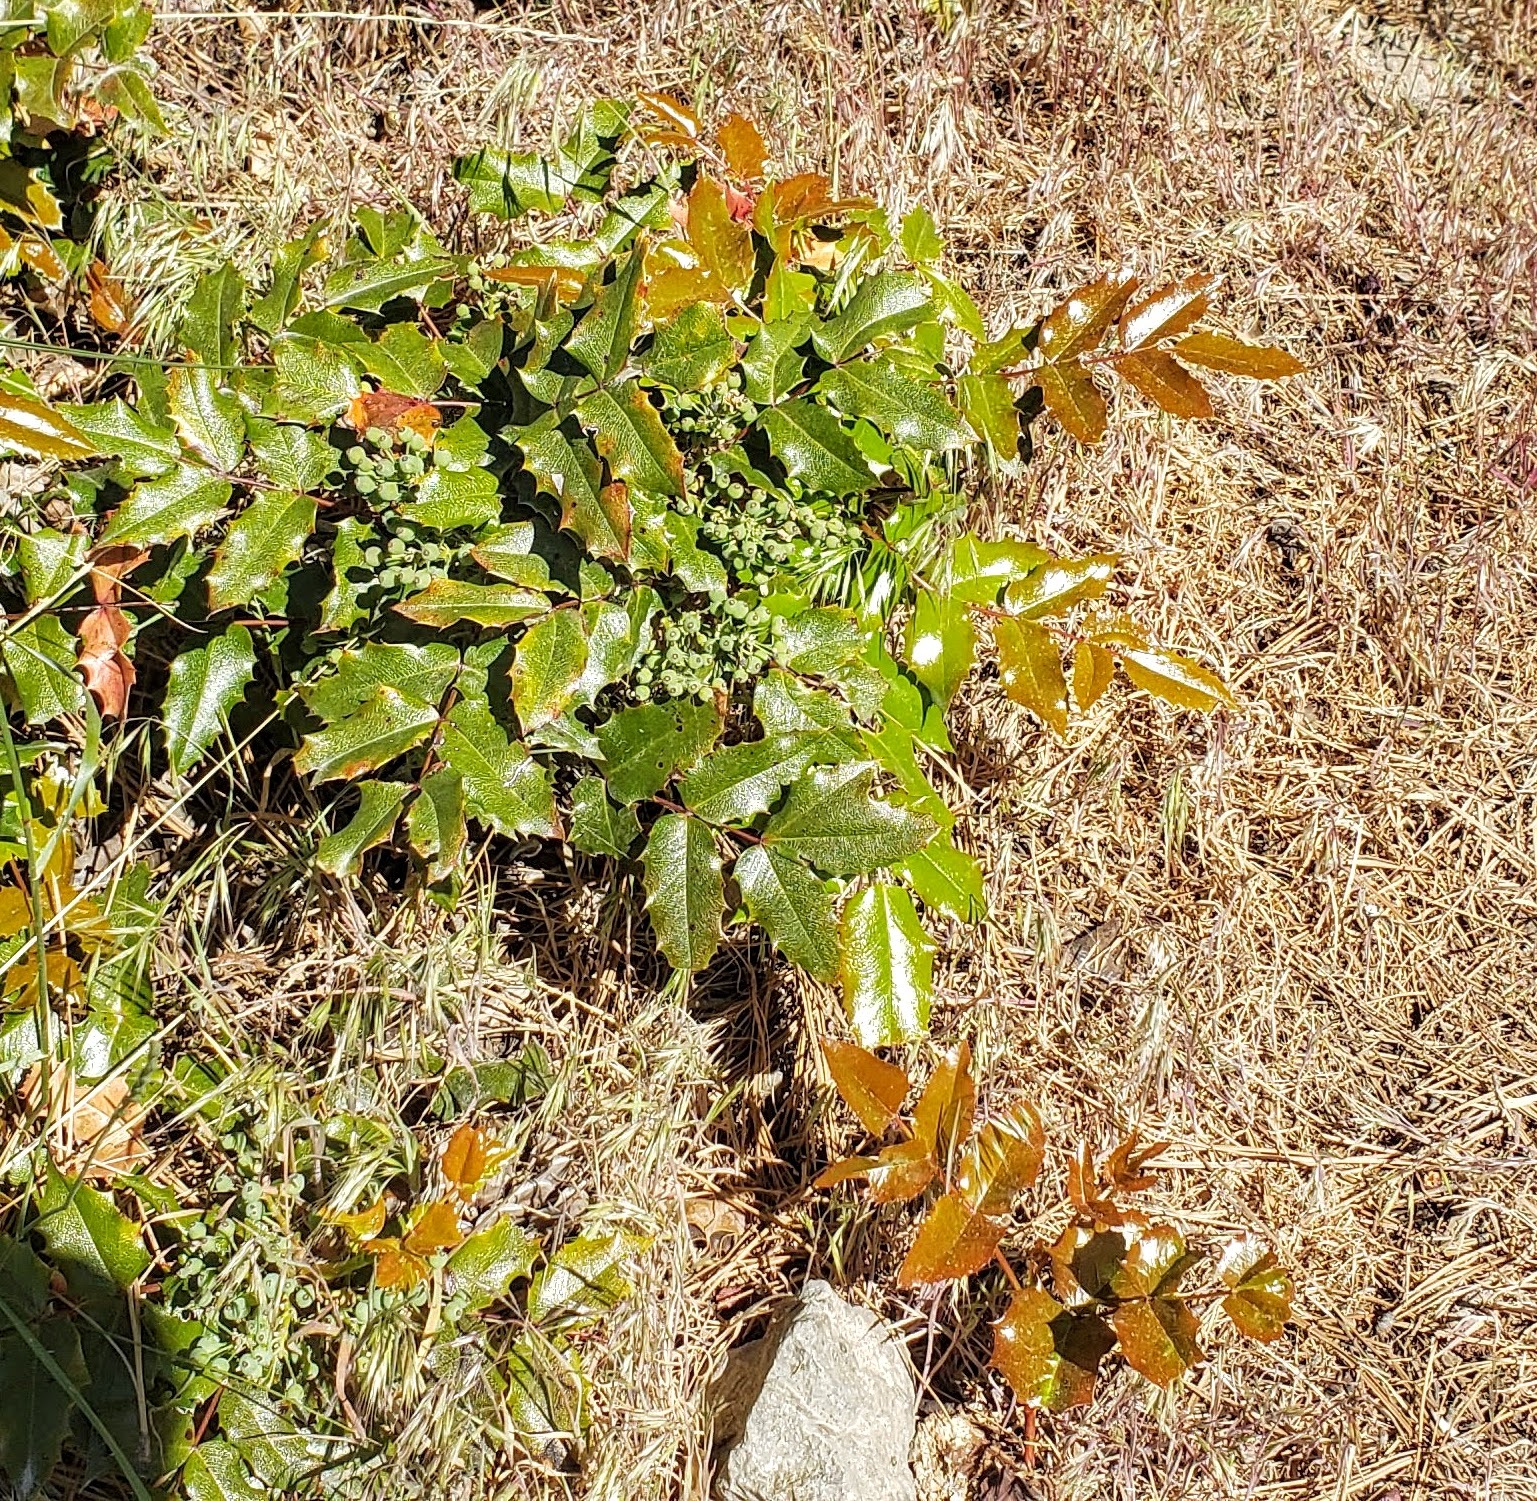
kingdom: Plantae
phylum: Tracheophyta
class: Magnoliopsida
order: Ranunculales
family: Berberidaceae
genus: Mahonia
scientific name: Mahonia aquifolium
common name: Oregon-grape
